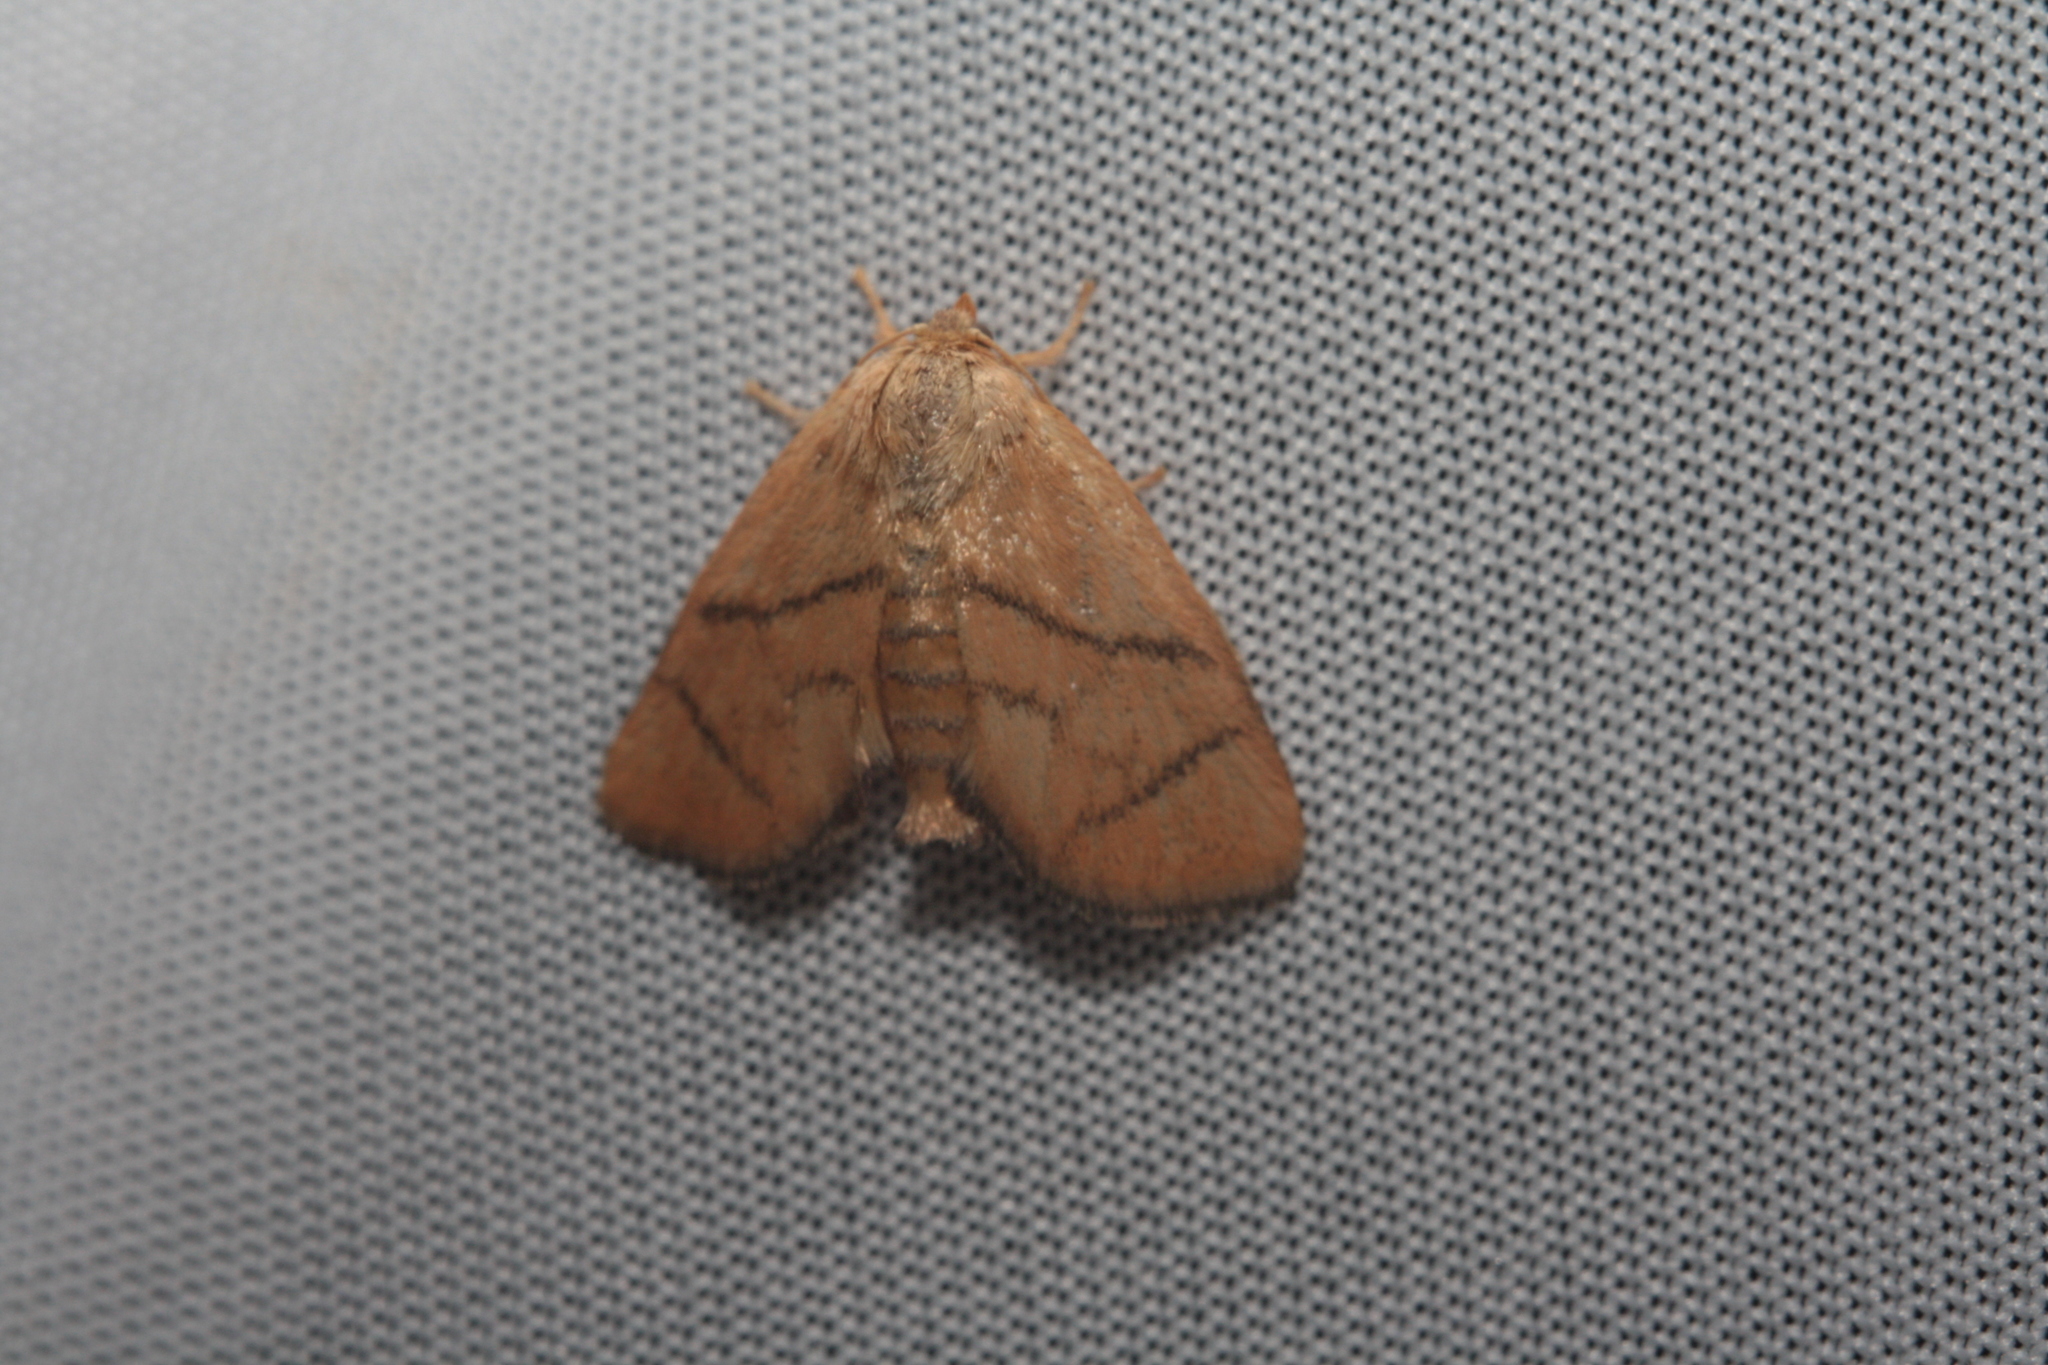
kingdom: Animalia
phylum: Arthropoda
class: Insecta
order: Lepidoptera
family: Limacodidae
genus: Apoda
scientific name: Apoda limacodes
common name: Festoon
